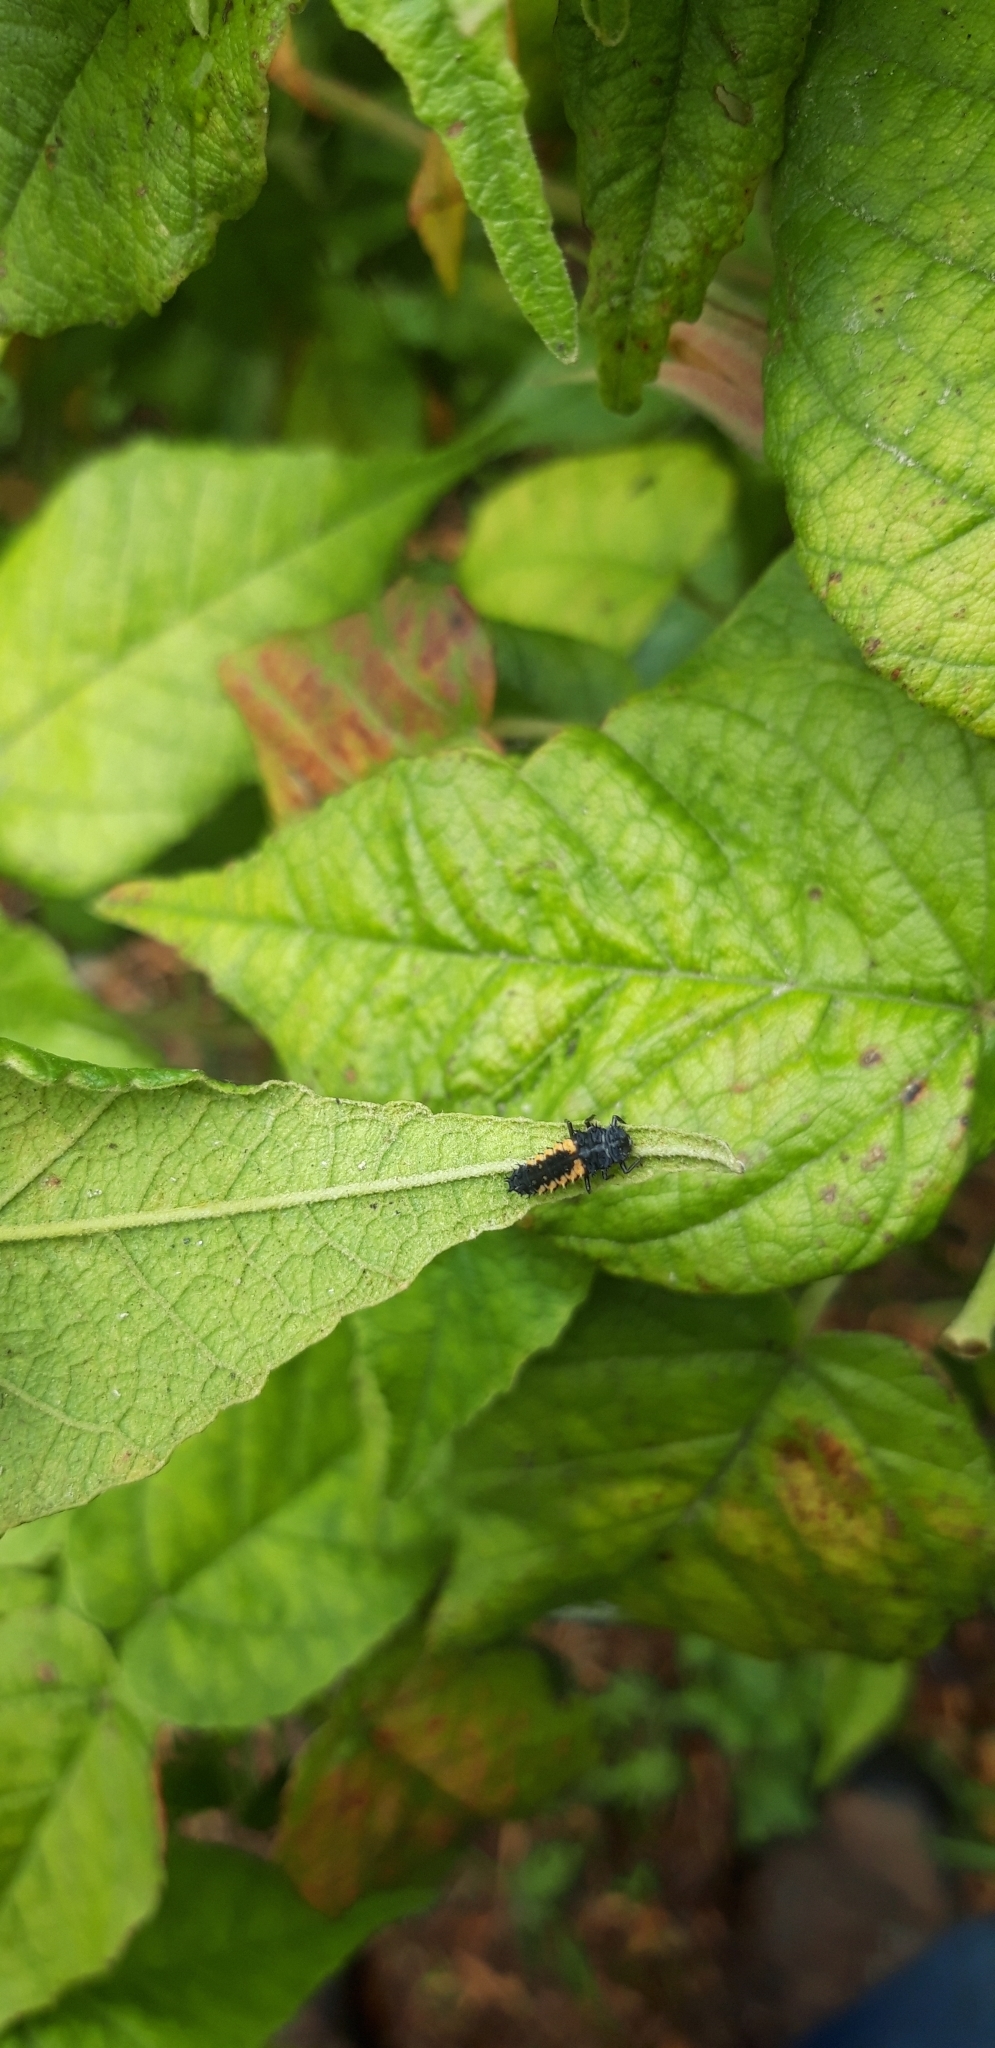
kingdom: Animalia
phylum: Arthropoda
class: Insecta
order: Coleoptera
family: Coccinellidae
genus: Harmonia
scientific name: Harmonia axyridis
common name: Harlequin ladybird
